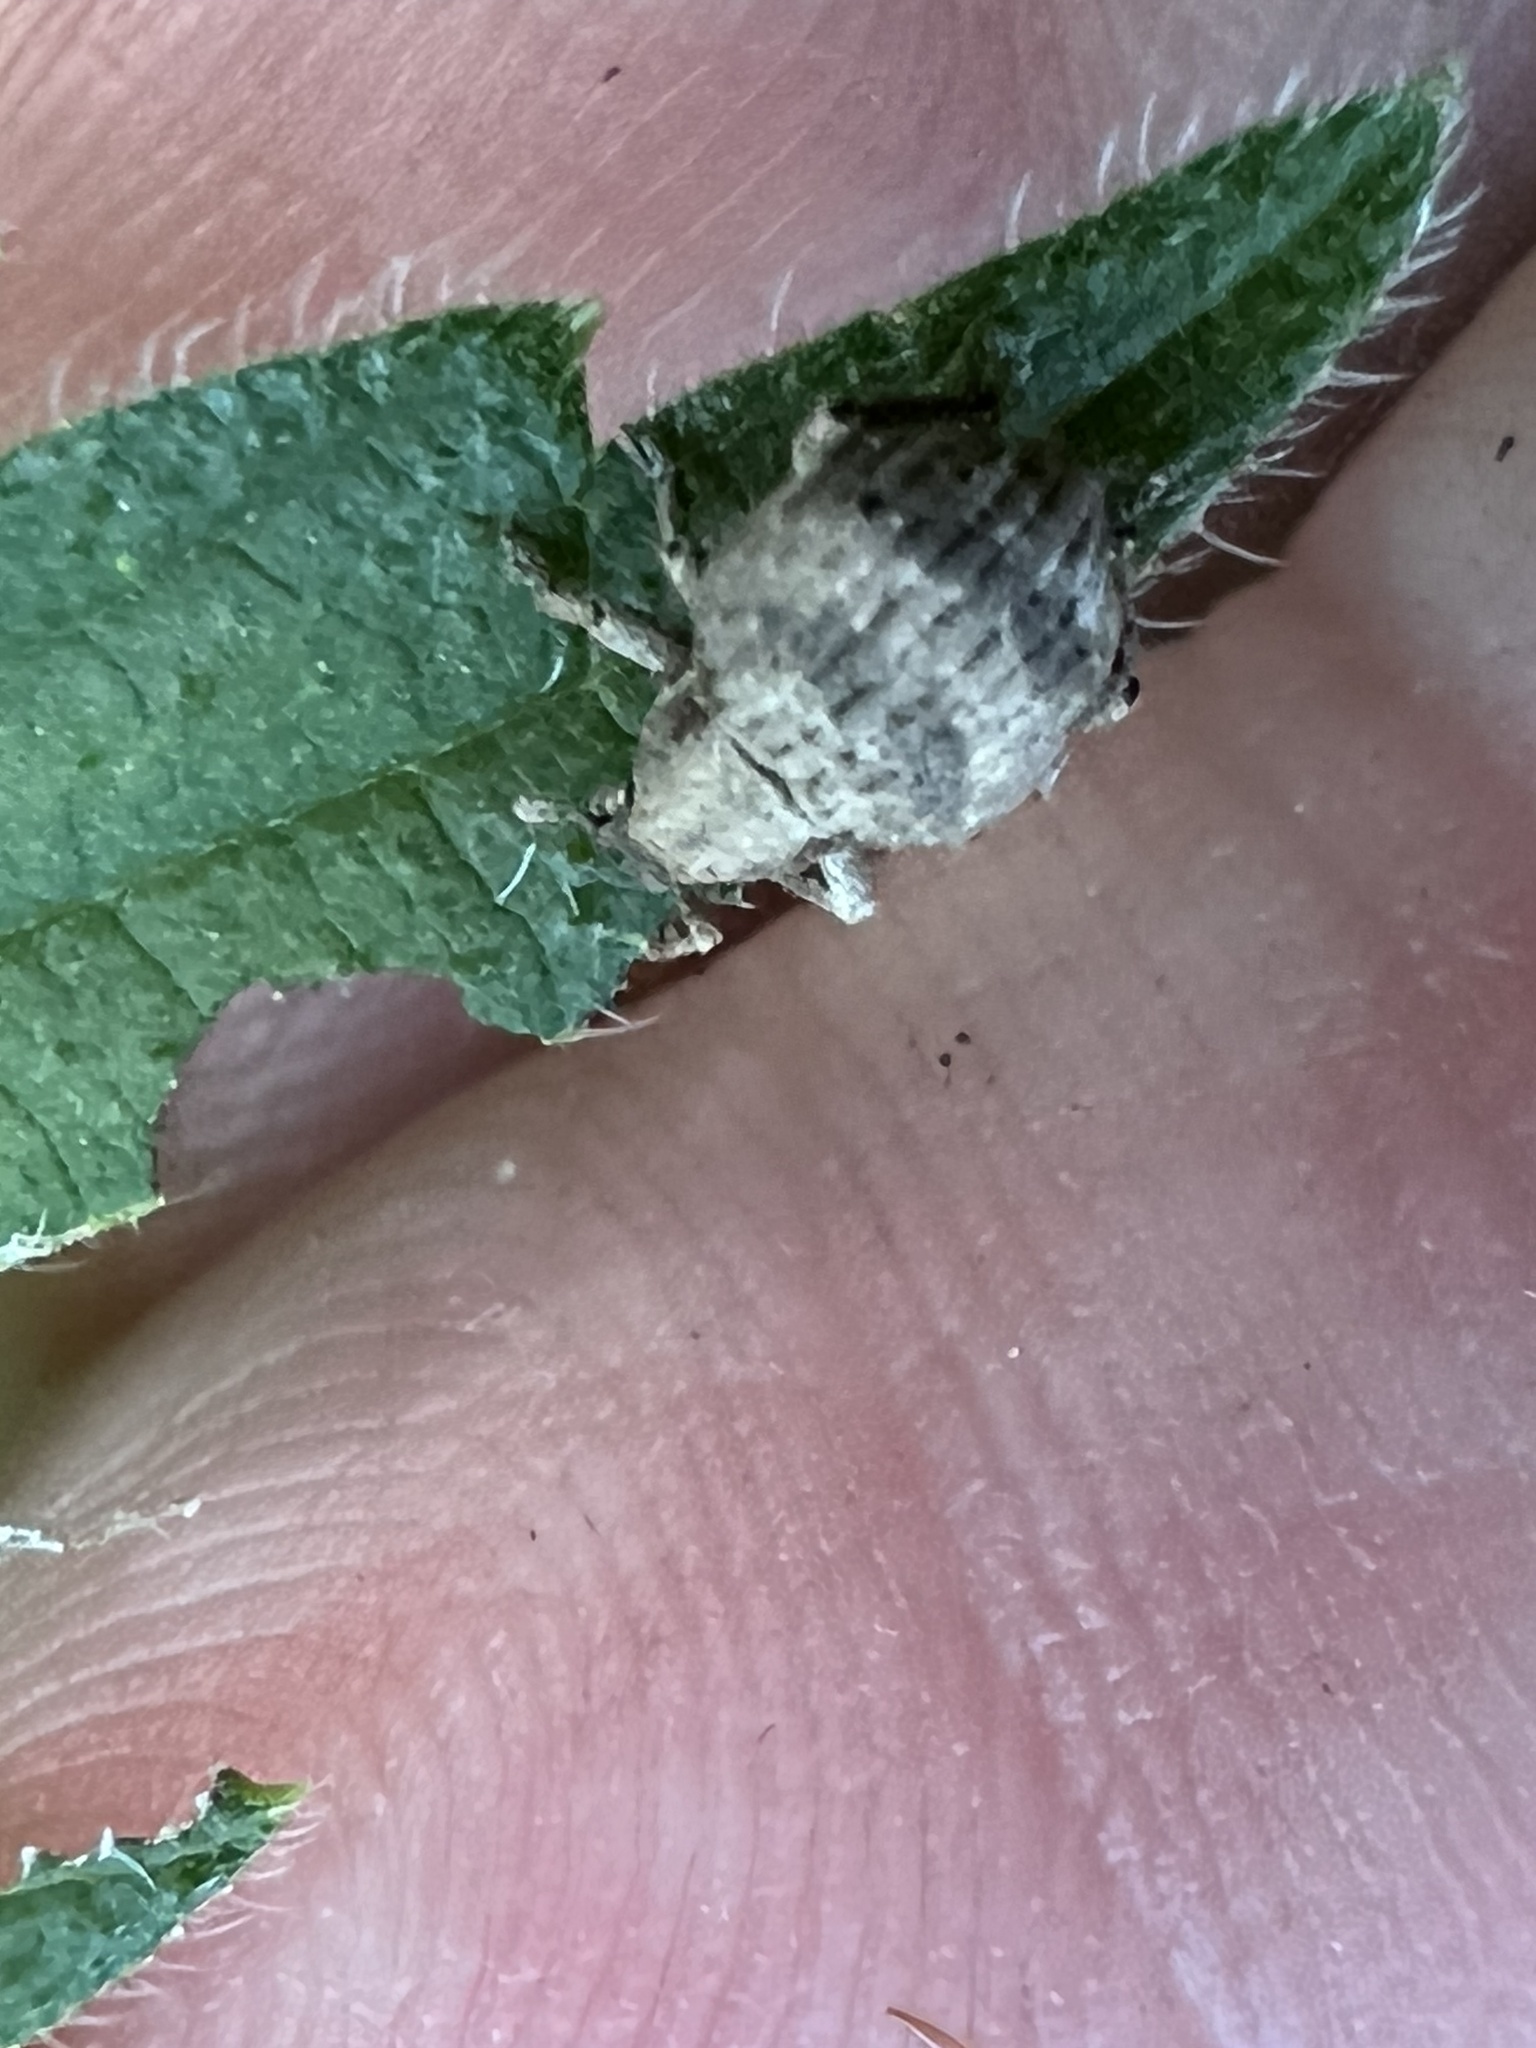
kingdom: Animalia
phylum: Arthropoda
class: Insecta
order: Coleoptera
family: Curculionidae
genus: Pseudocneorhinus
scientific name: Pseudocneorhinus bifasciatus
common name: Two-banded japanese weevil
